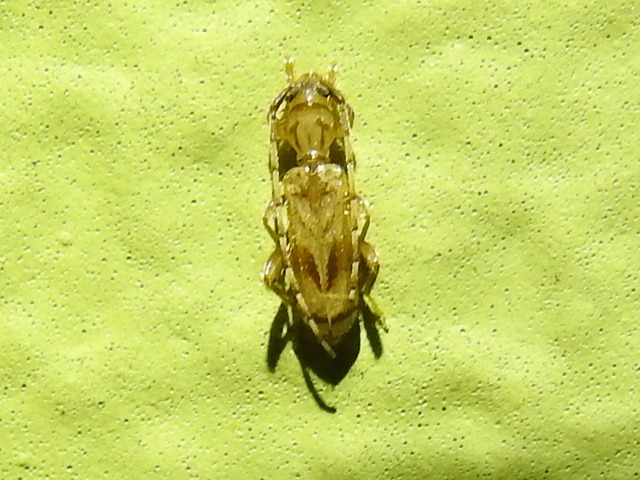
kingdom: Animalia
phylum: Arthropoda
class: Insecta
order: Coleoptera
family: Cerambycidae
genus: Obrium
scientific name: Obrium maculatum
